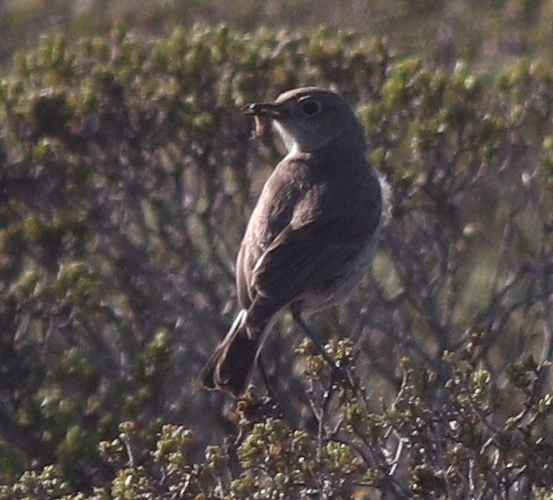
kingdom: Animalia
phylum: Chordata
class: Aves
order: Passeriformes
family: Muscicapidae
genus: Emarginata
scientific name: Emarginata sinuata
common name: Sickle-winged chat
